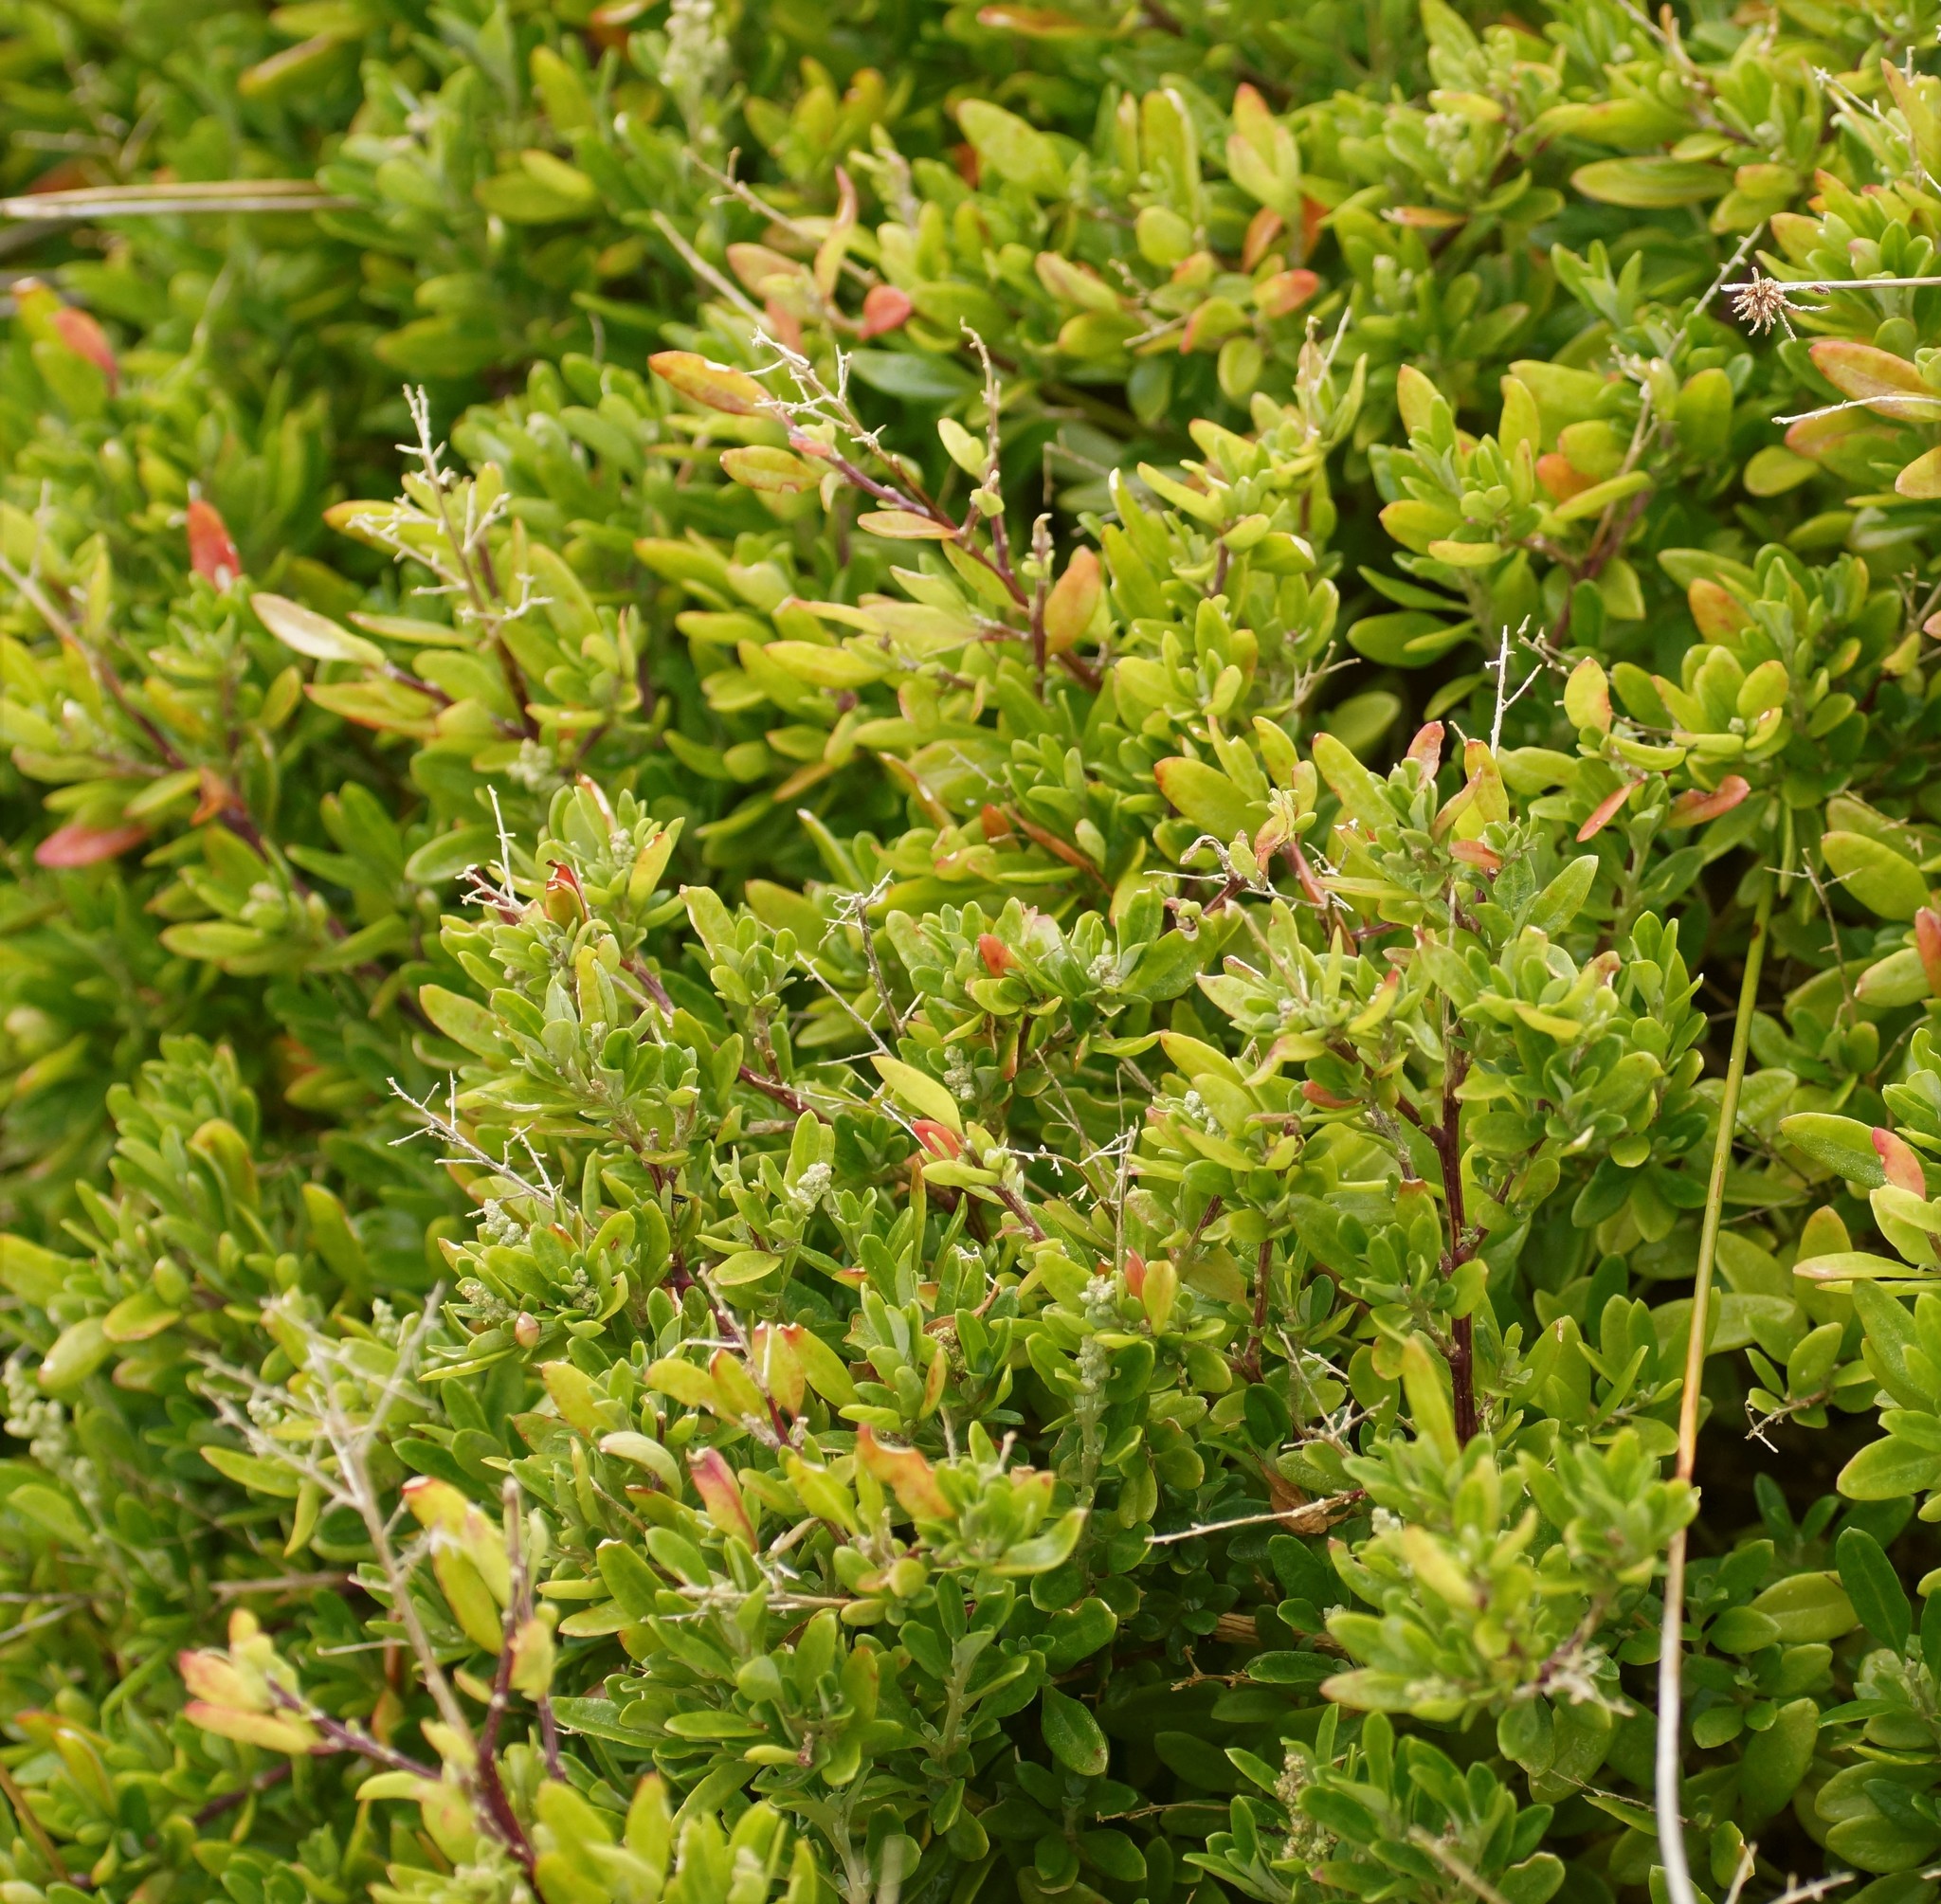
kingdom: Plantae
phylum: Tracheophyta
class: Magnoliopsida
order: Caryophyllales
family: Amaranthaceae
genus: Chenopodium
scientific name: Chenopodium candolleanum
